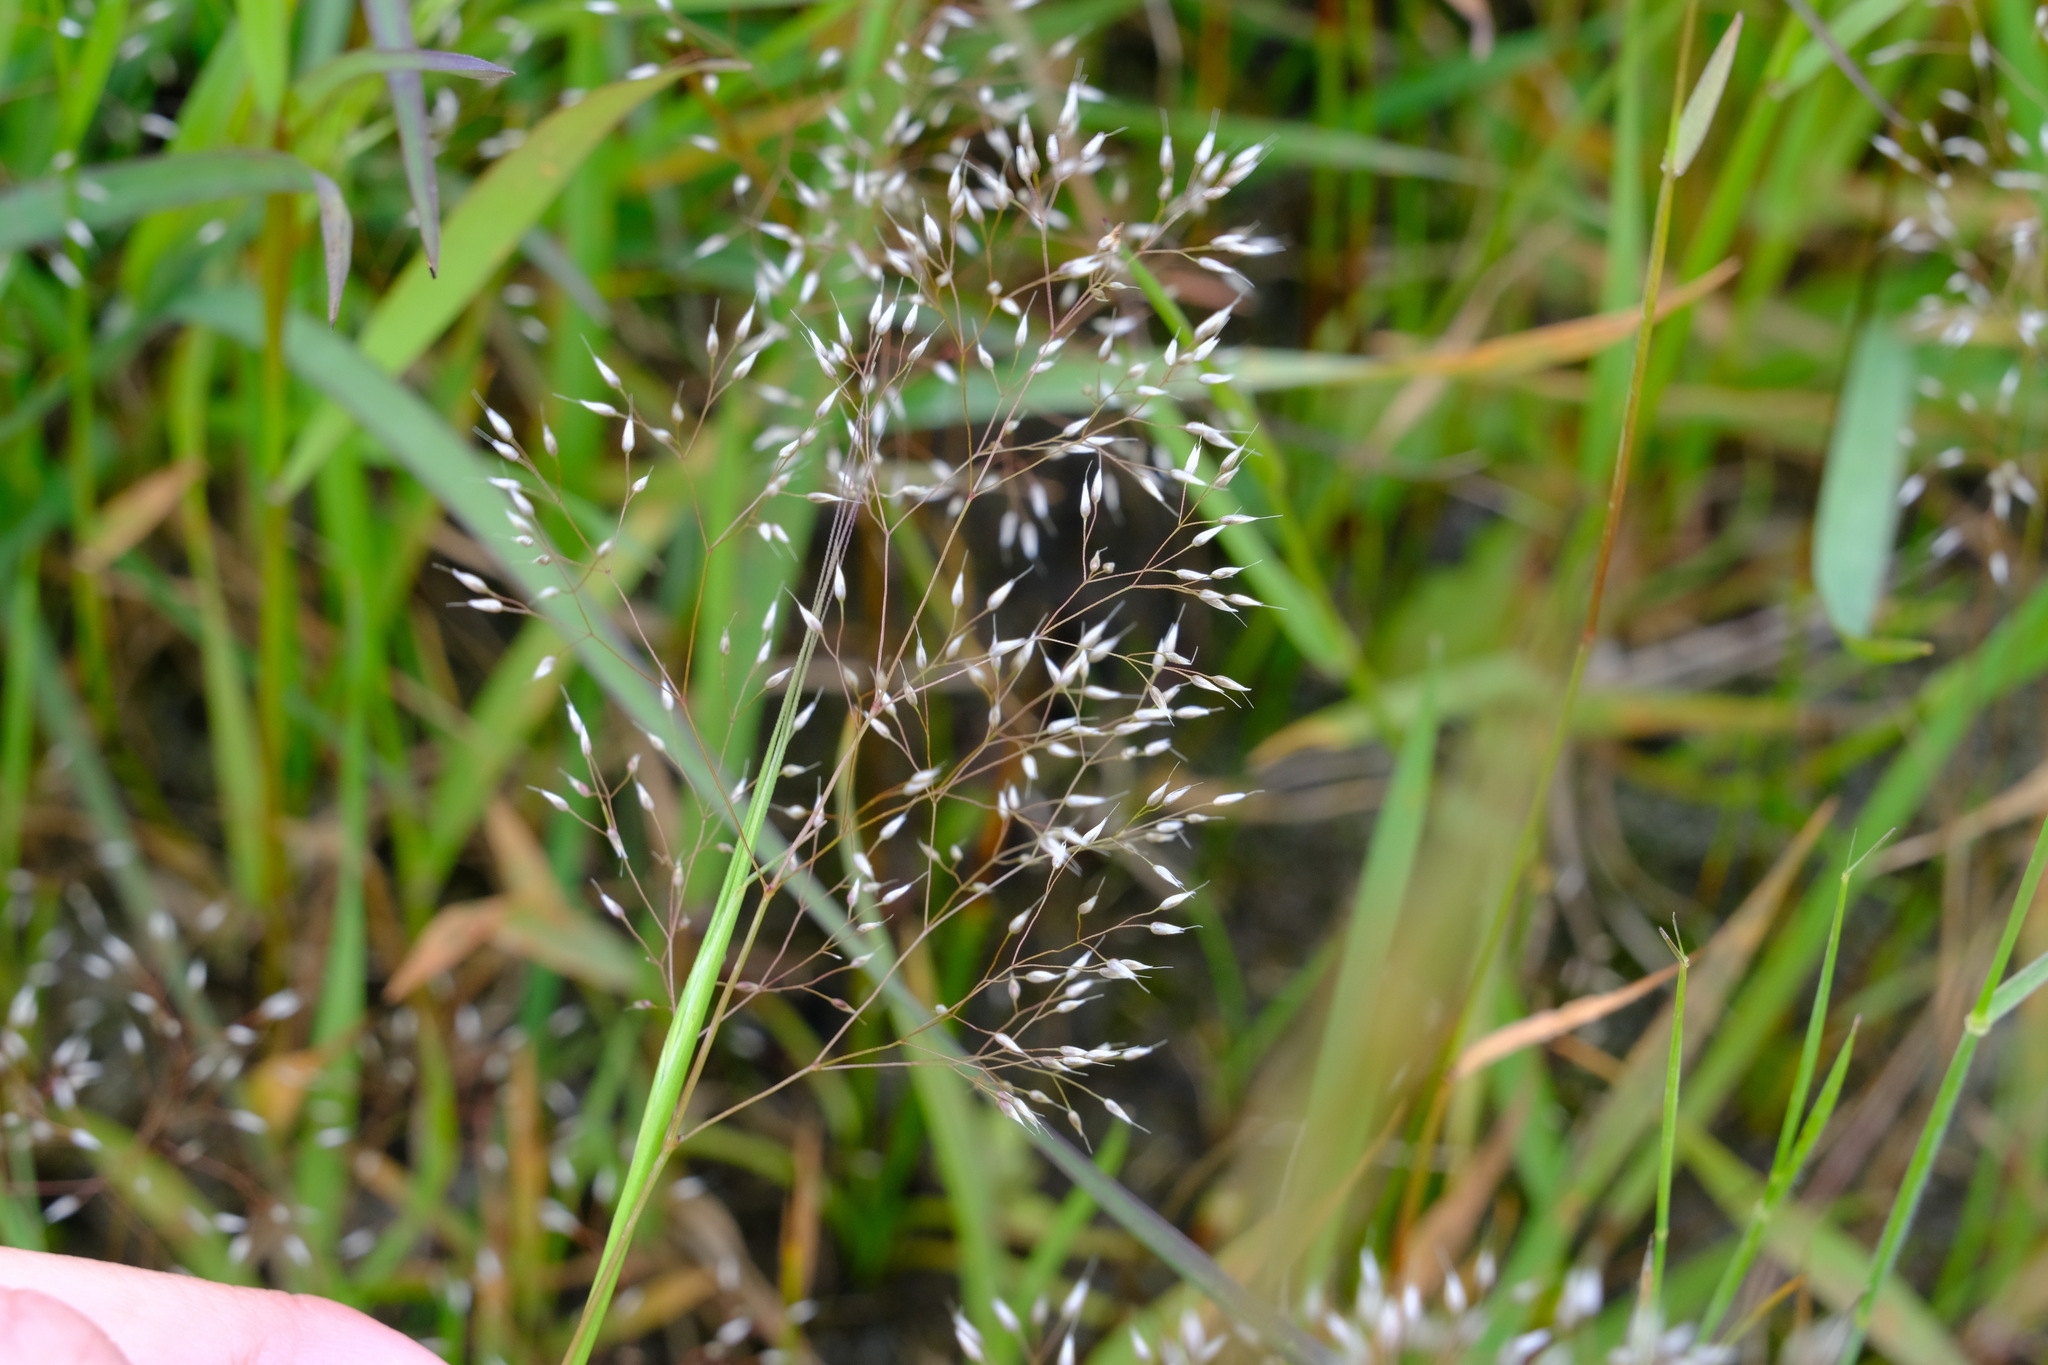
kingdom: Plantae
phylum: Tracheophyta
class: Liliopsida
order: Poales
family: Poaceae
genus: Aira
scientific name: Aira cupaniana
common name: Silver hairgrass
